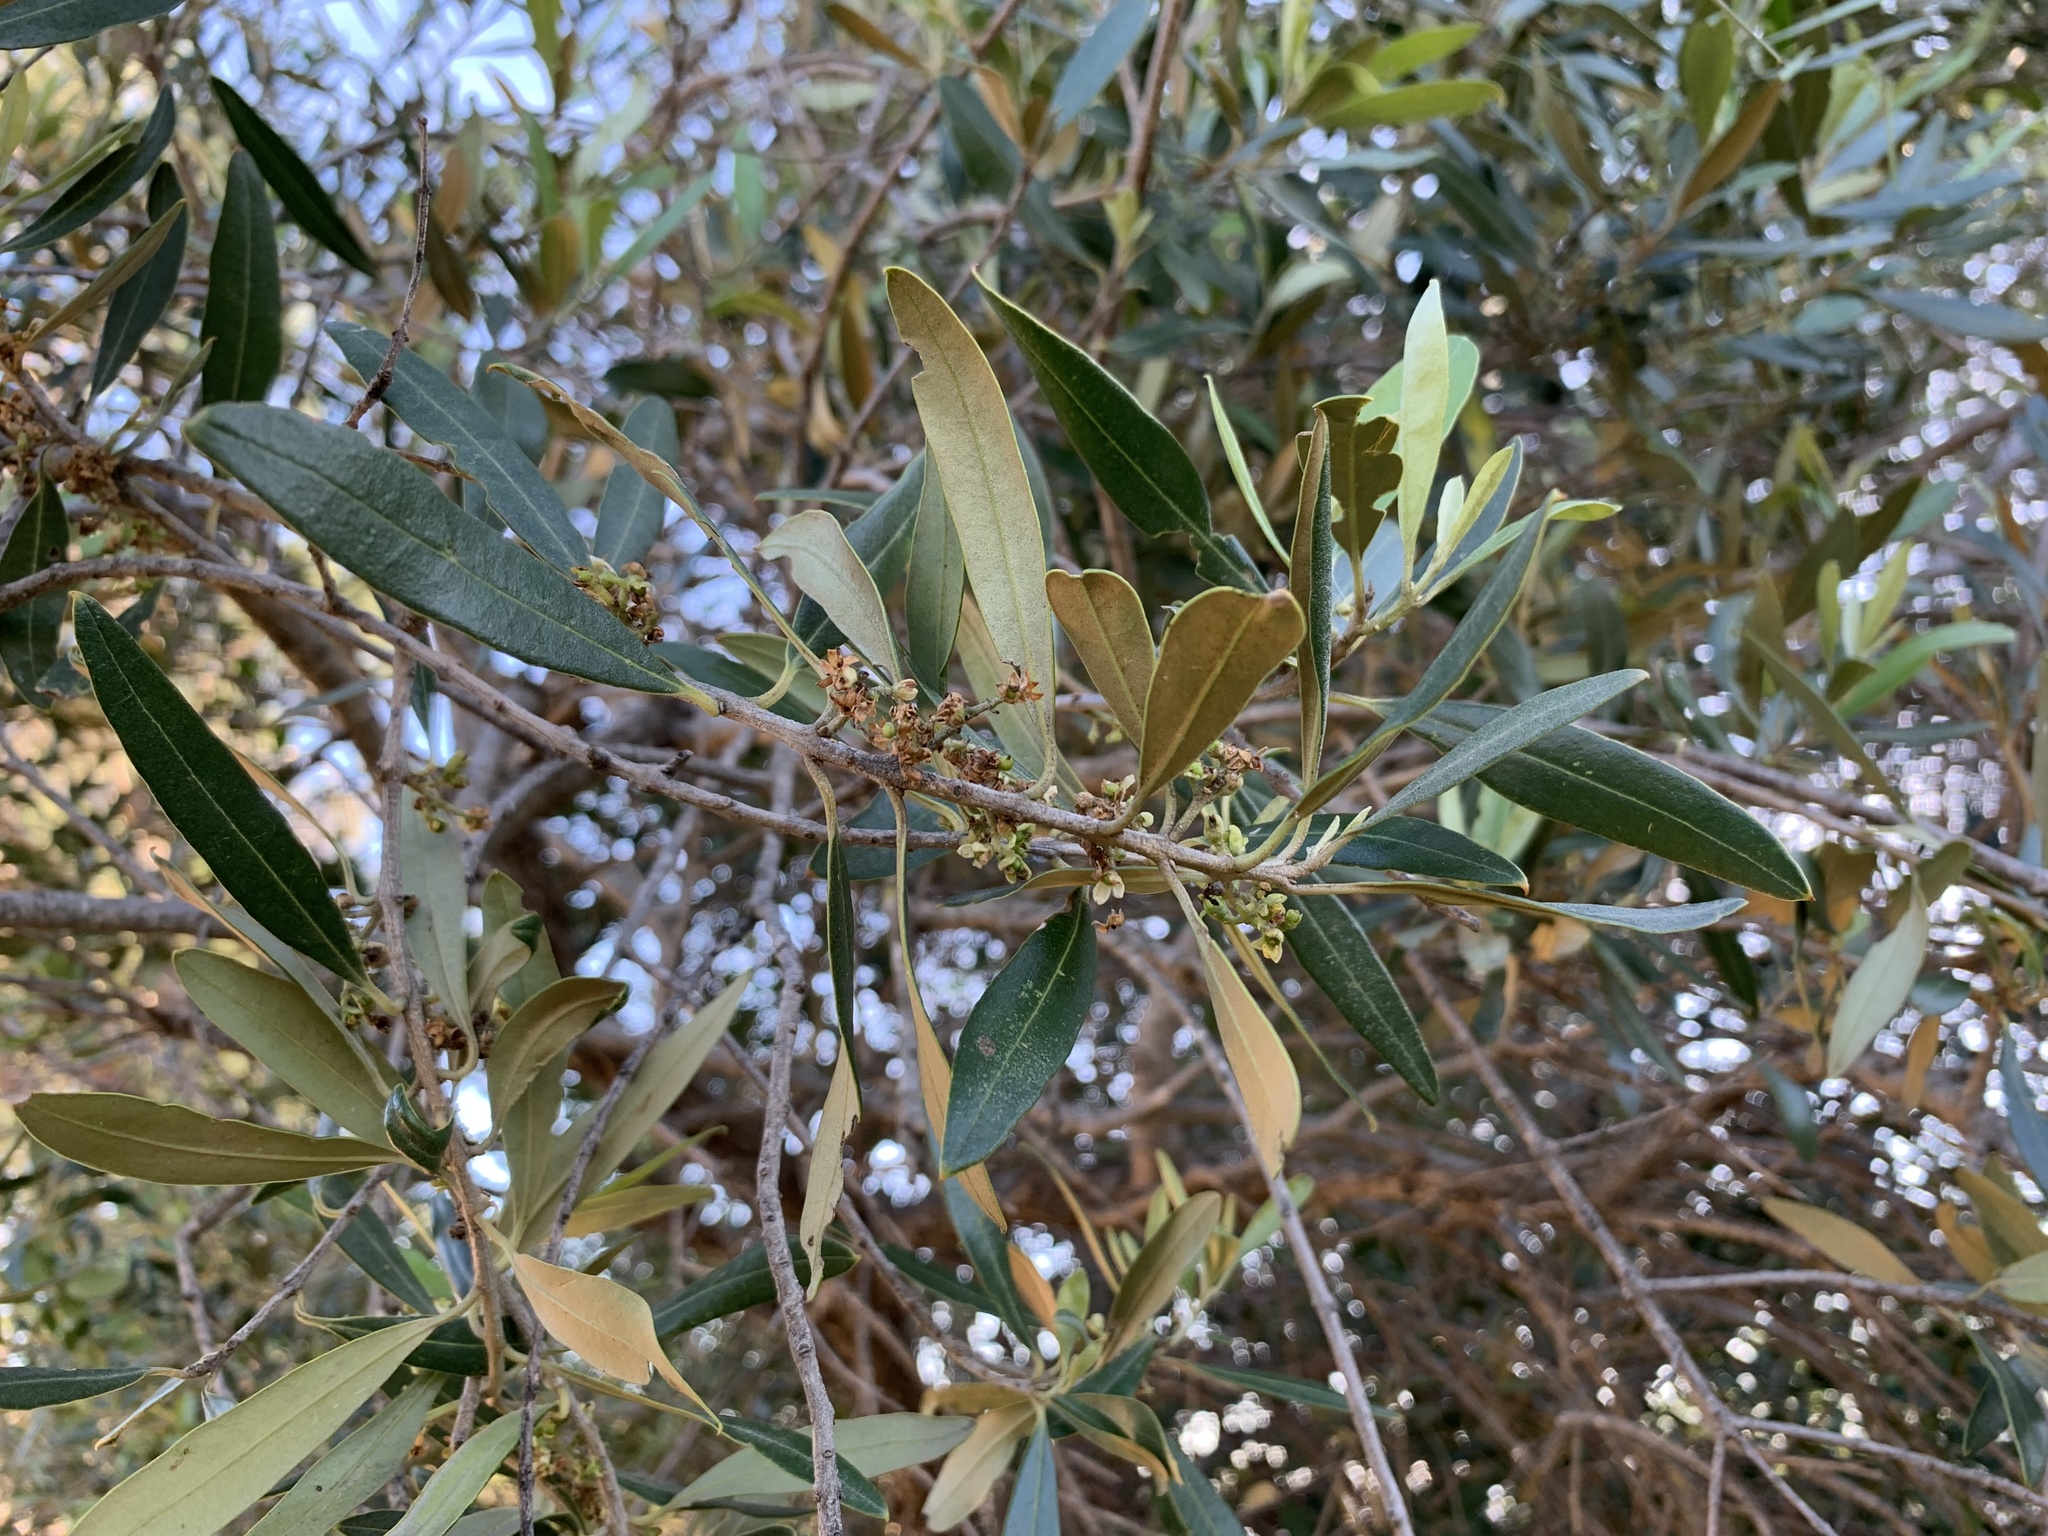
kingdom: Plantae
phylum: Tracheophyta
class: Magnoliopsida
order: Lamiales
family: Oleaceae
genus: Olea
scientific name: Olea europaea
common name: Olive
